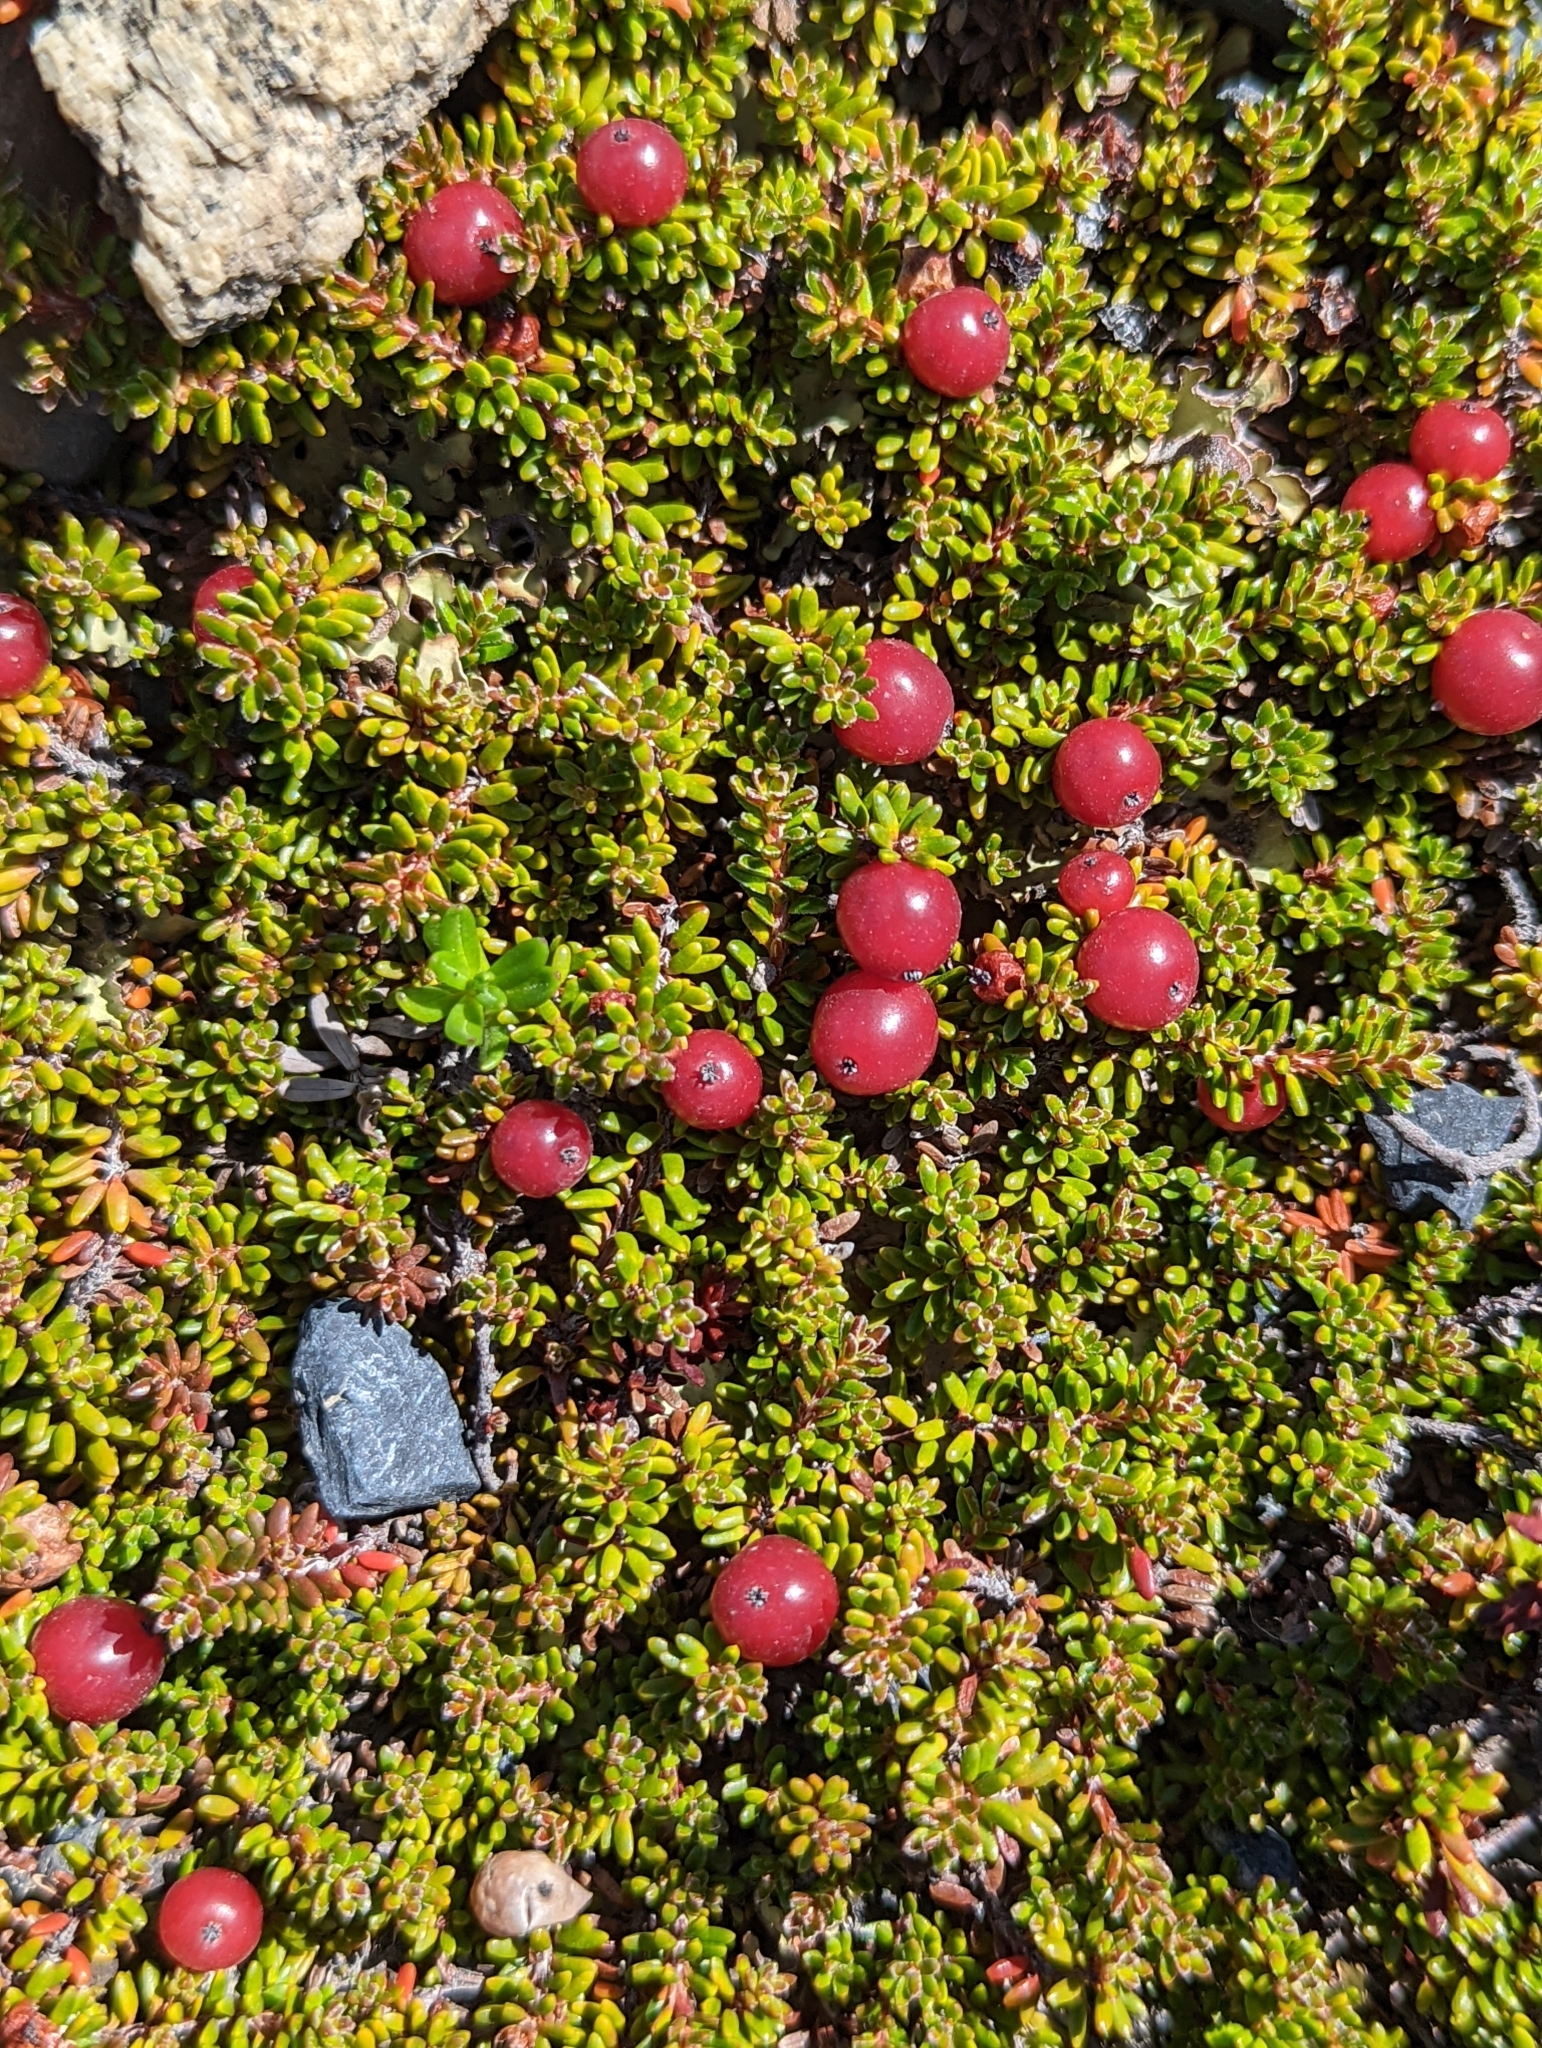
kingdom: Plantae
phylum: Tracheophyta
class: Magnoliopsida
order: Ericales
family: Ericaceae
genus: Empetrum
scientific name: Empetrum rubrum
